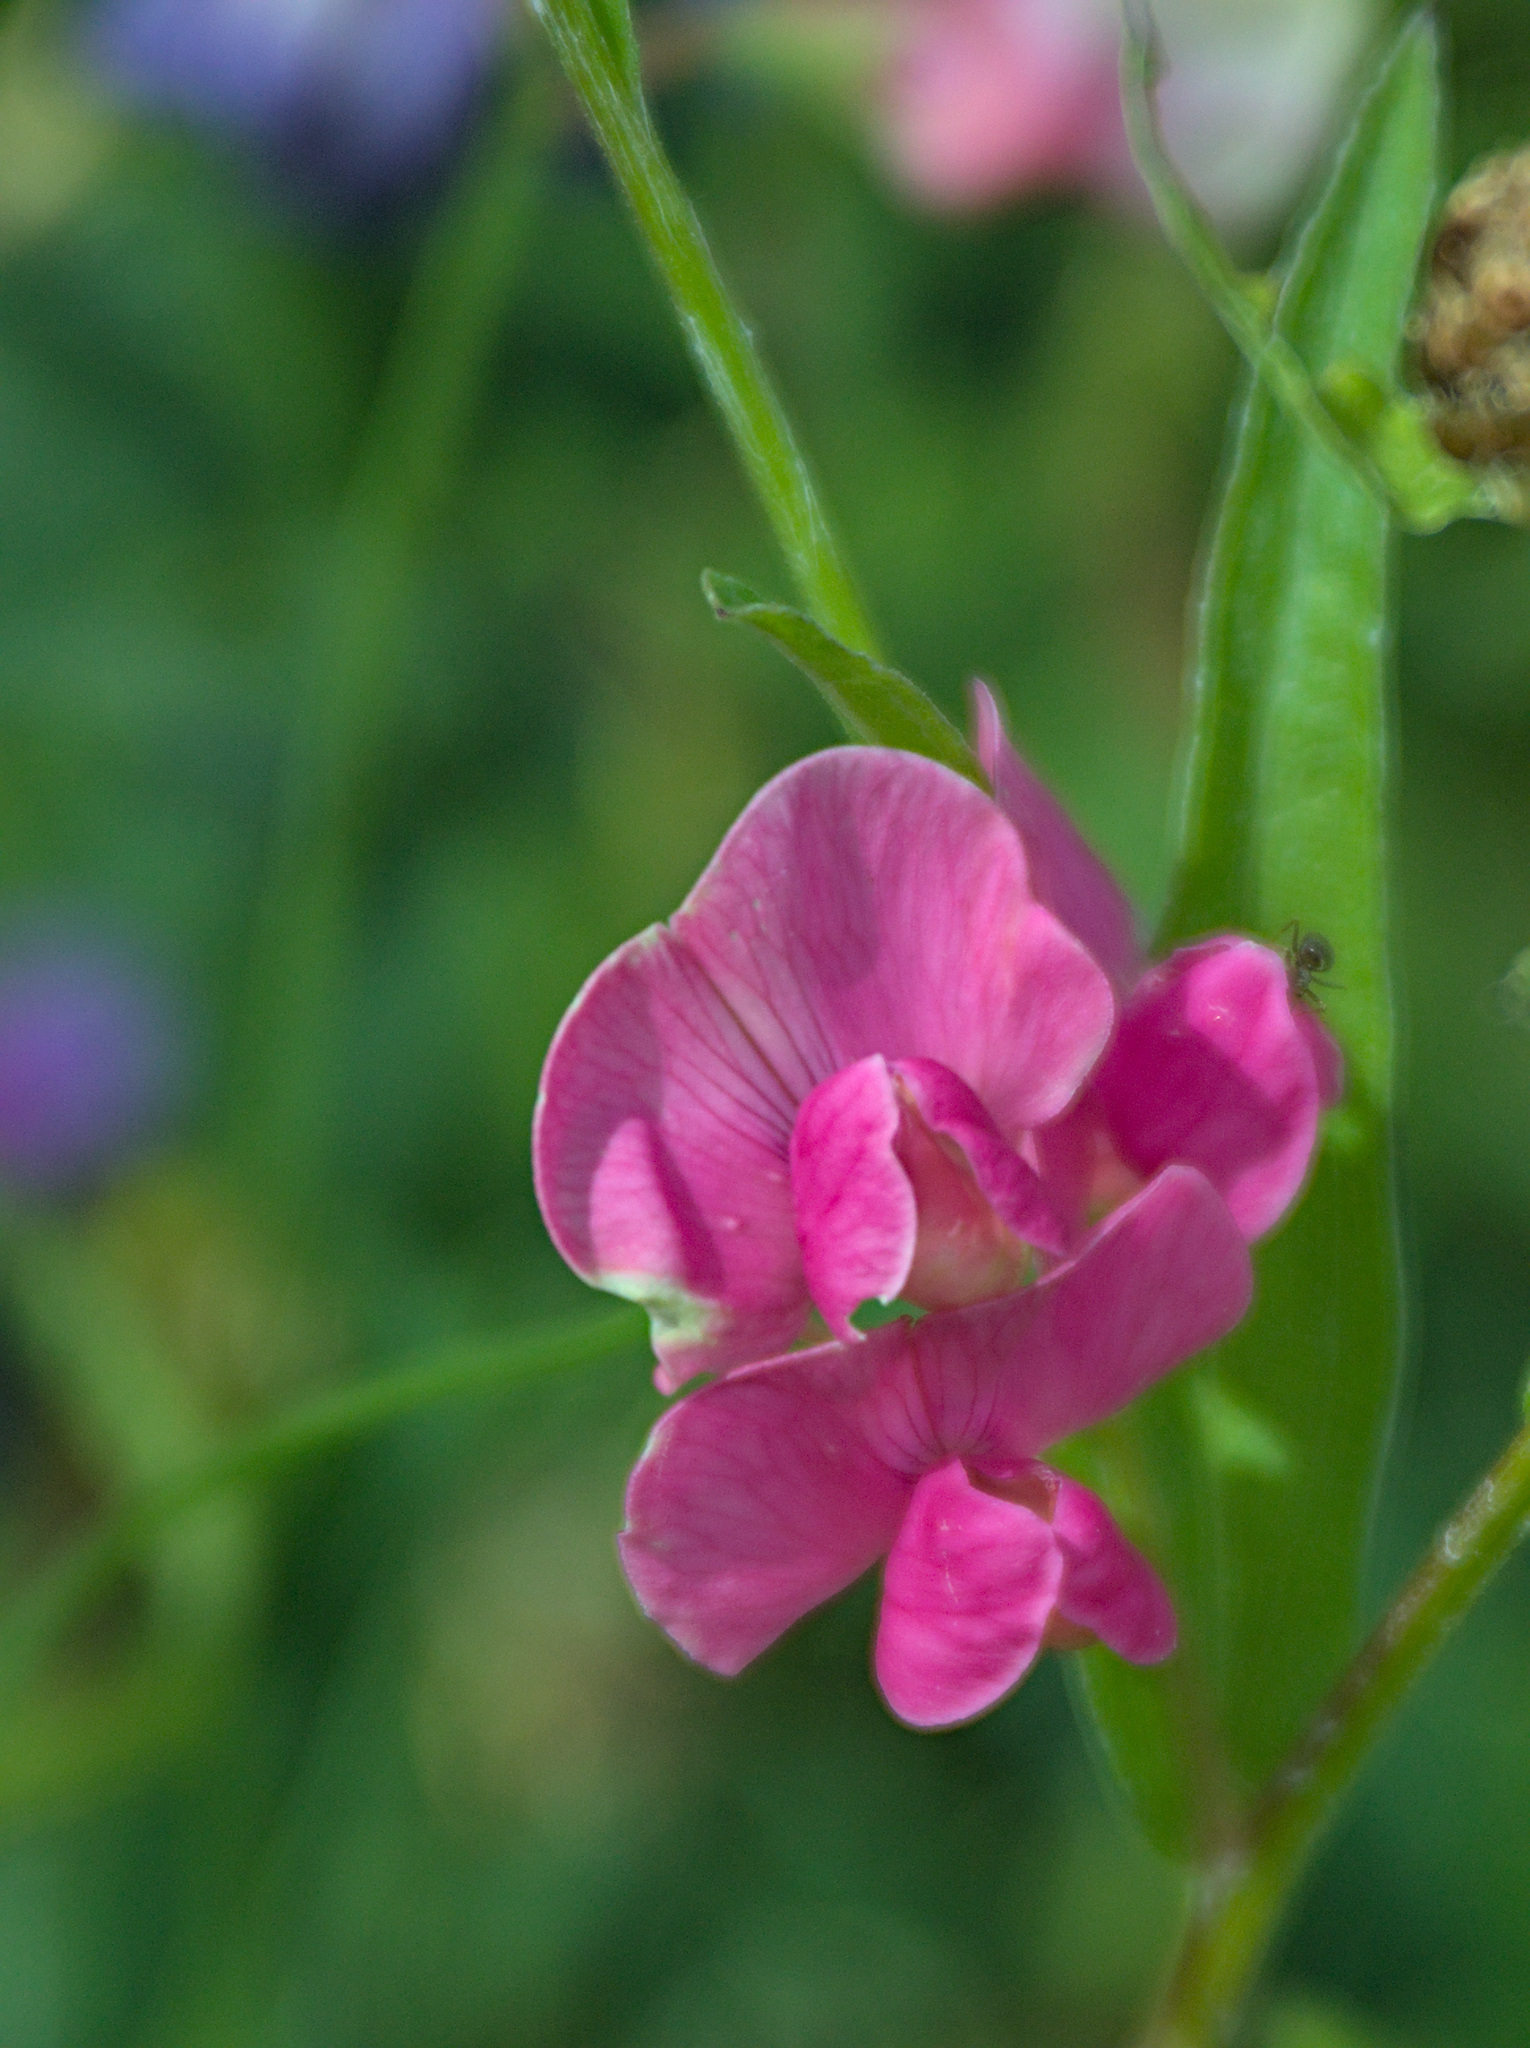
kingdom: Plantae
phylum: Tracheophyta
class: Magnoliopsida
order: Fabales
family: Fabaceae
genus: Lathyrus
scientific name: Lathyrus tuberosus
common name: Tuberous pea
